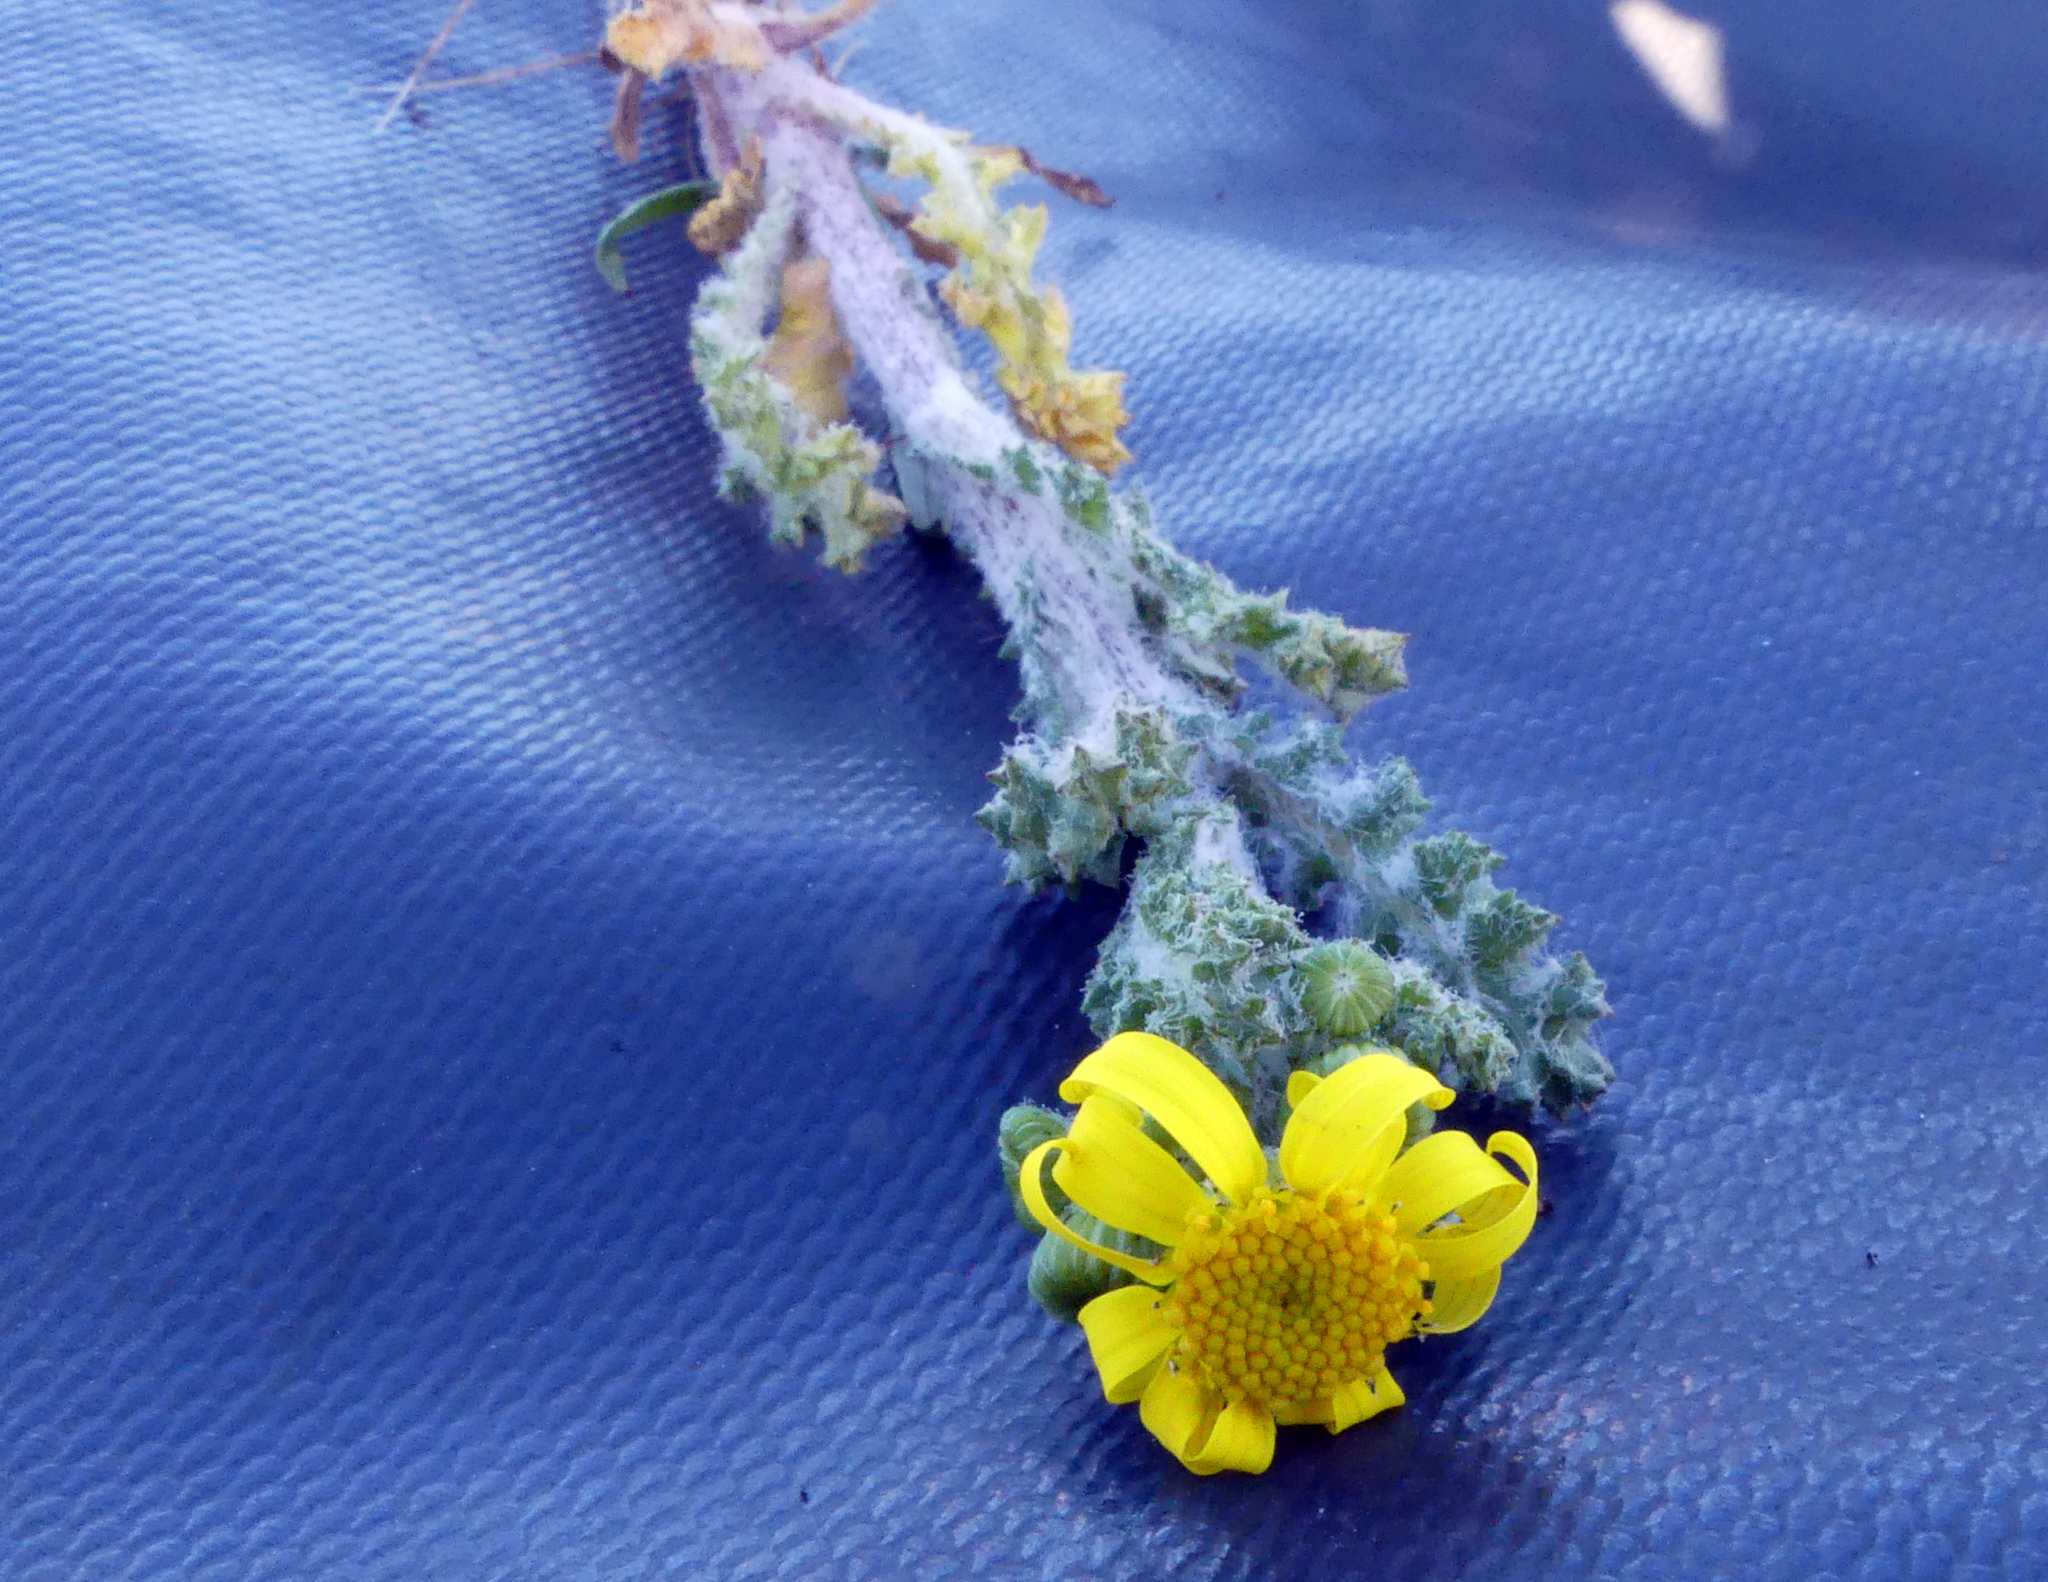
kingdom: Plantae
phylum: Tracheophyta
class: Magnoliopsida
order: Asterales
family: Asteraceae
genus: Senecio
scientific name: Senecio vernalis
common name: Eastern groundsel
